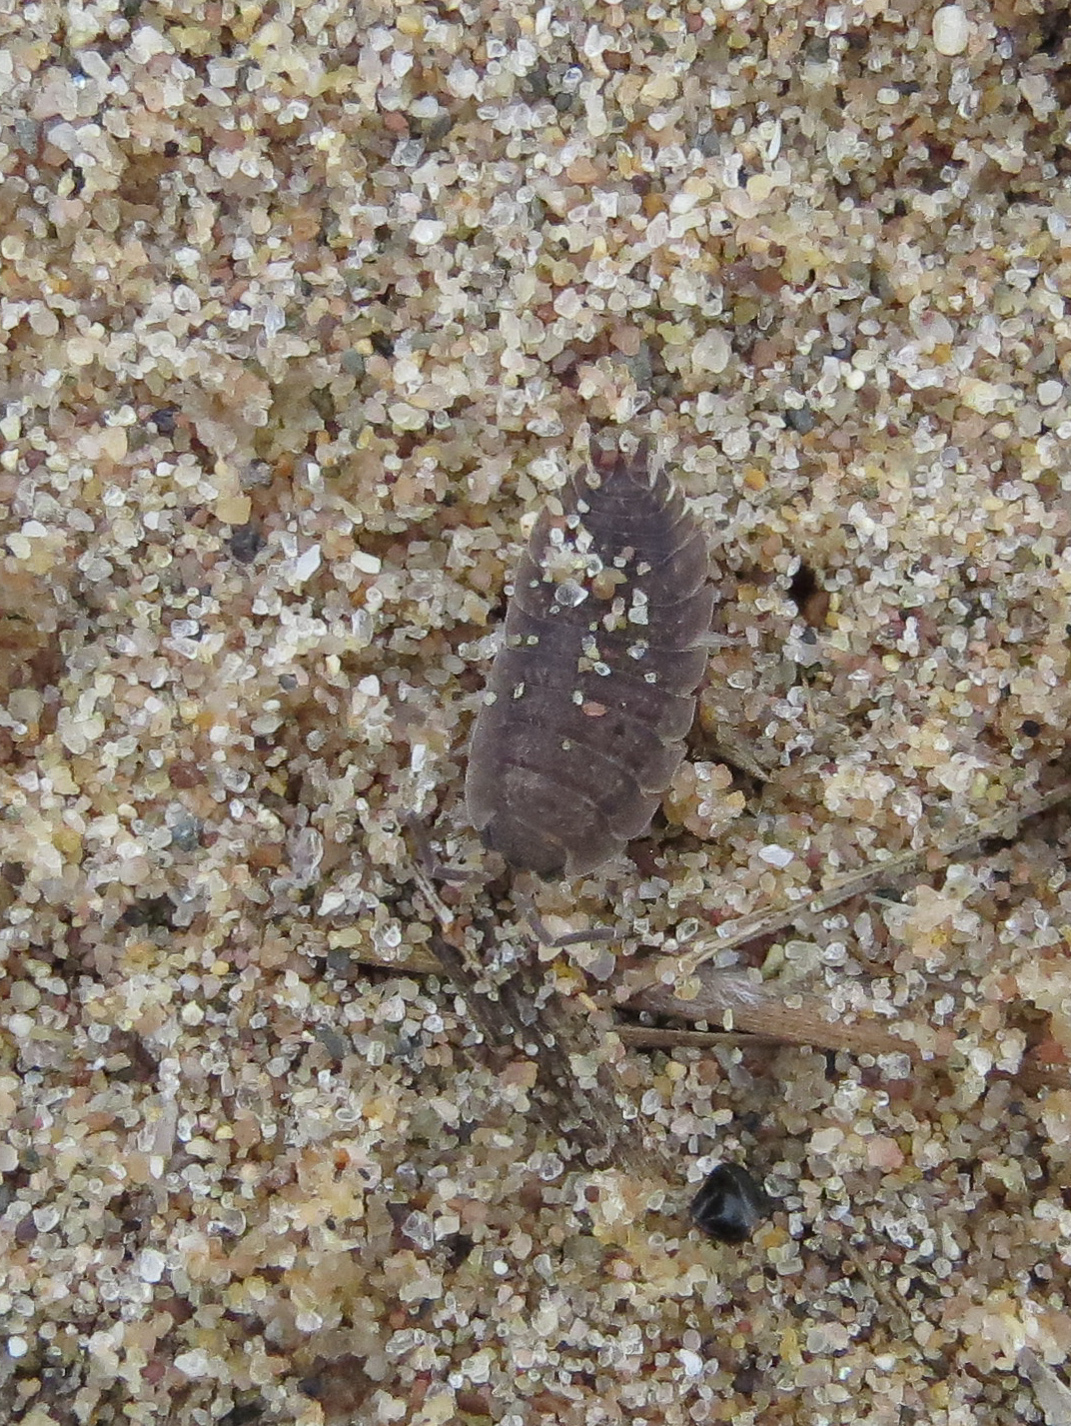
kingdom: Animalia
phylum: Arthropoda
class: Malacostraca
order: Isopoda
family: Porcellionidae
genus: Porcellio
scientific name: Porcellio scaber
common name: Common rough woodlouse
